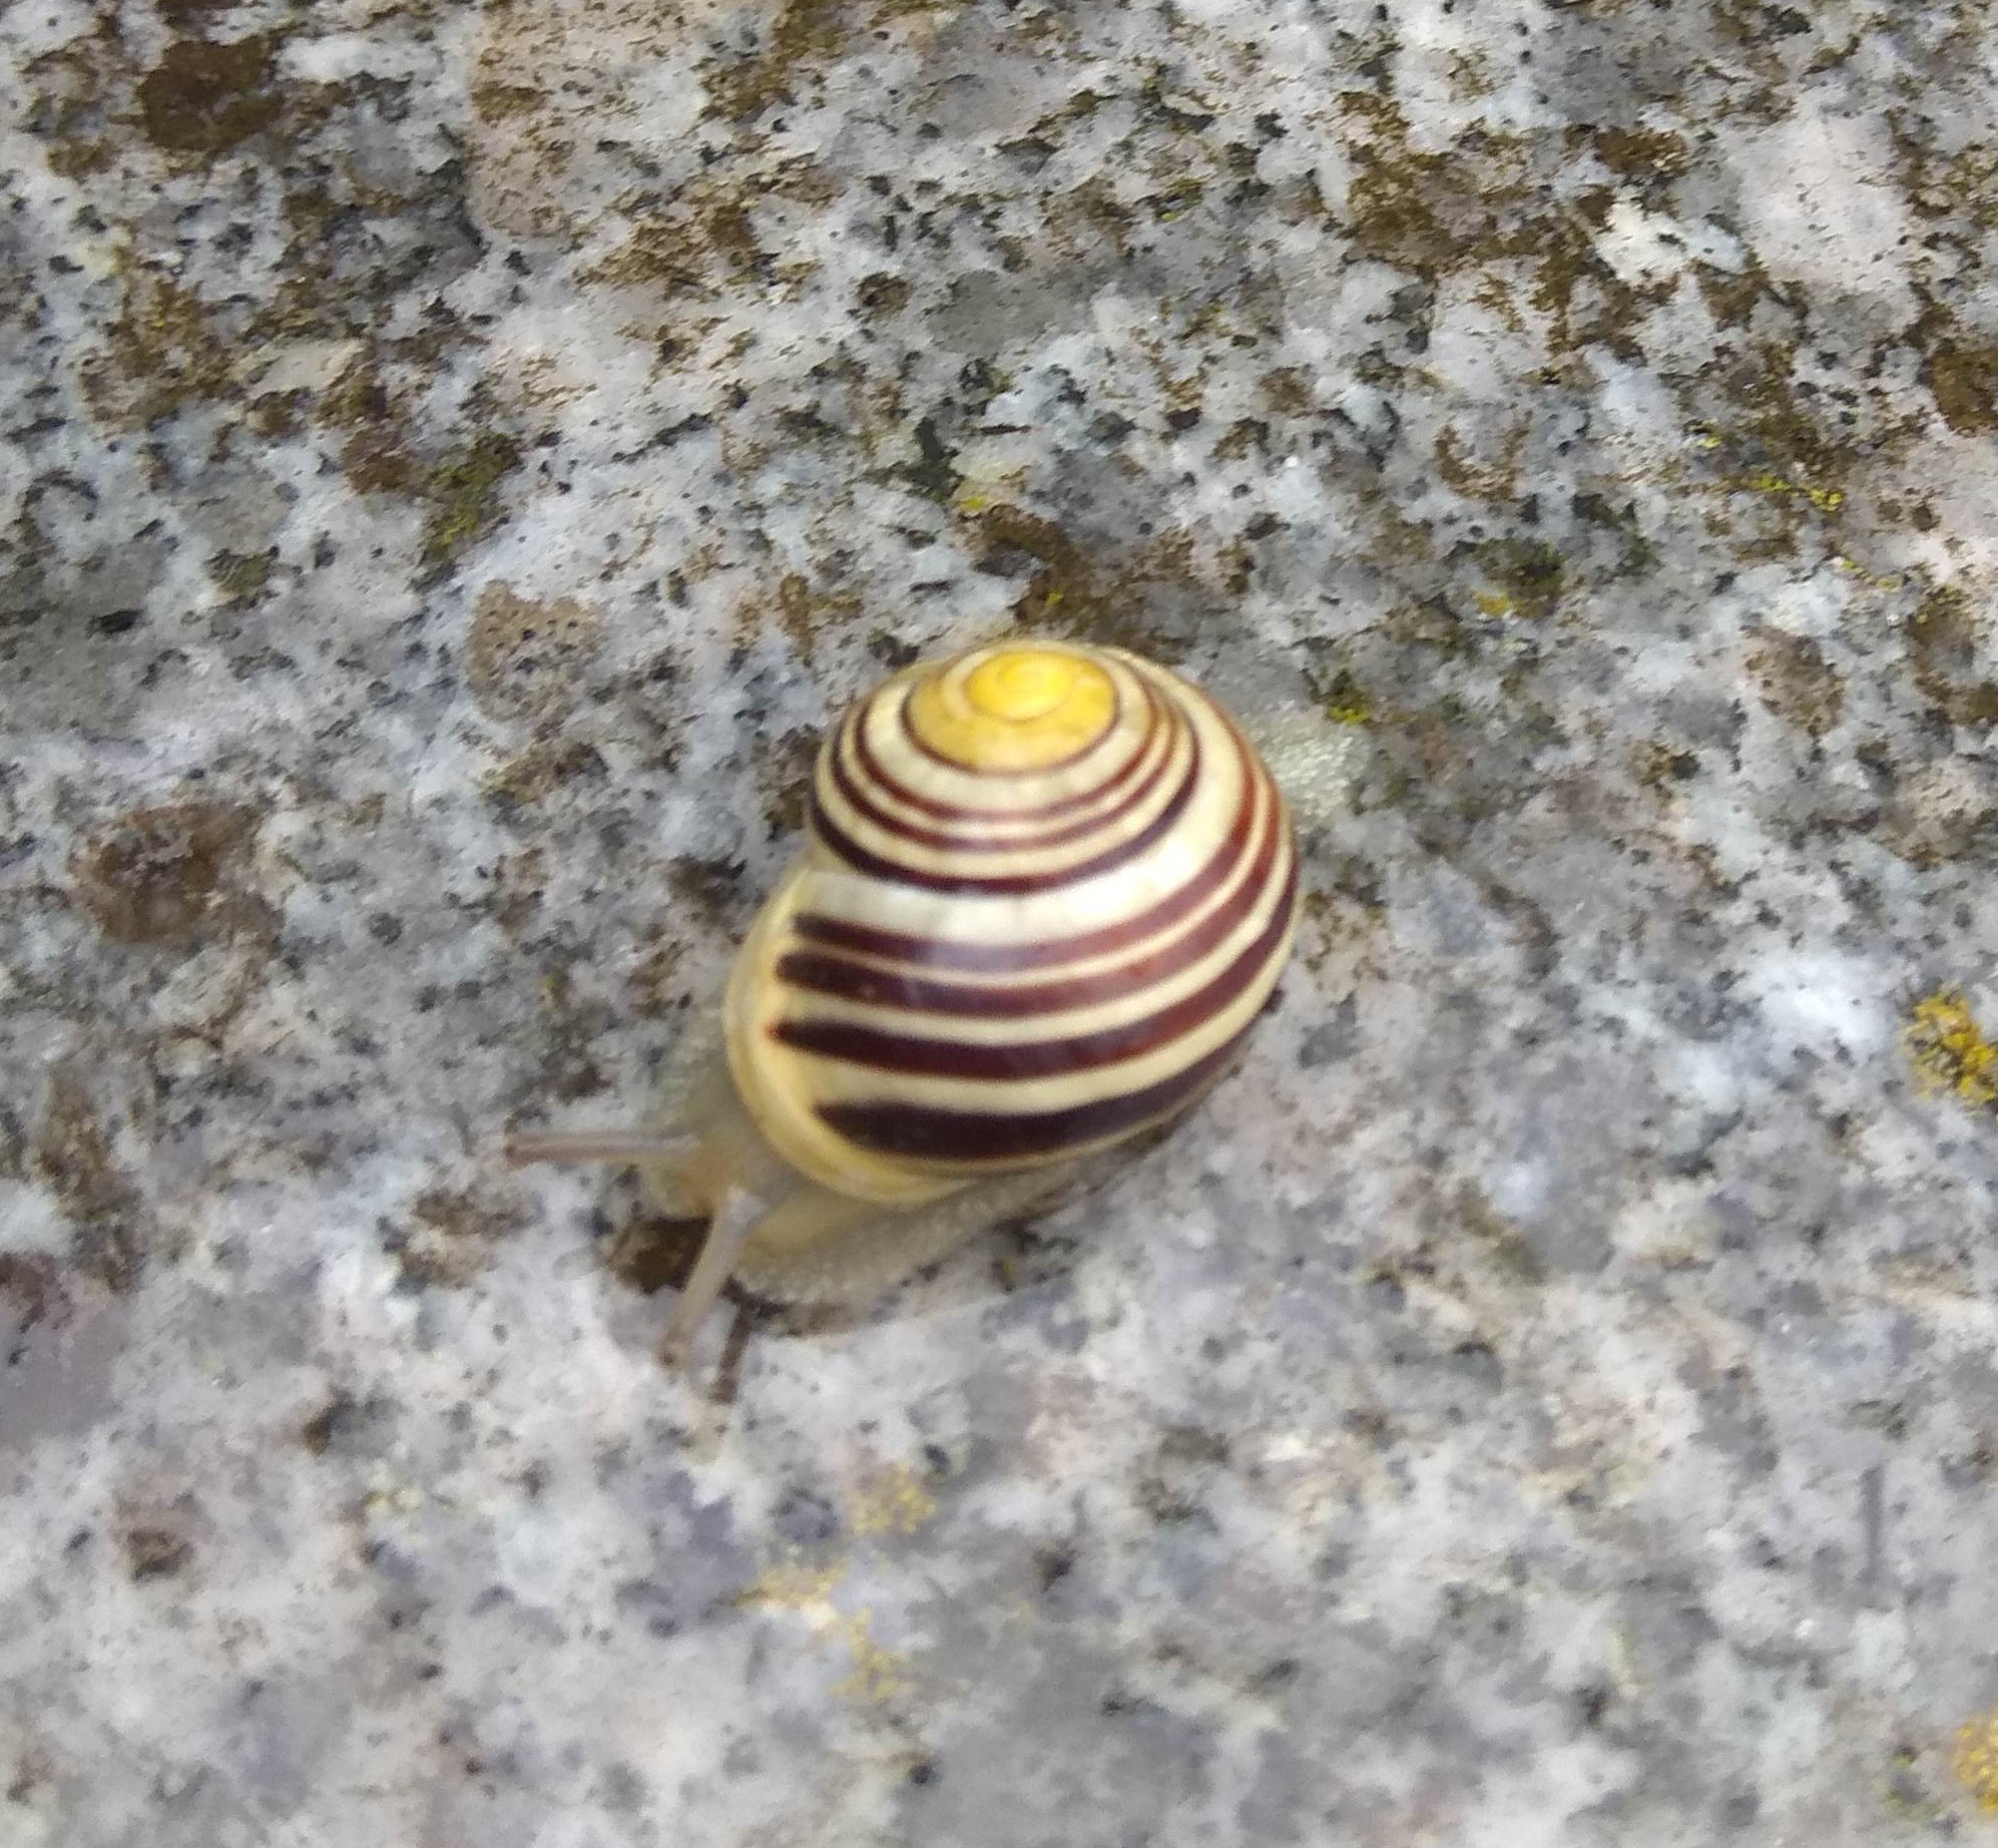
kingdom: Animalia
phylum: Mollusca
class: Gastropoda
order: Stylommatophora
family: Helicidae
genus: Cepaea
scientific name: Cepaea hortensis
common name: White-lip gardensnail
